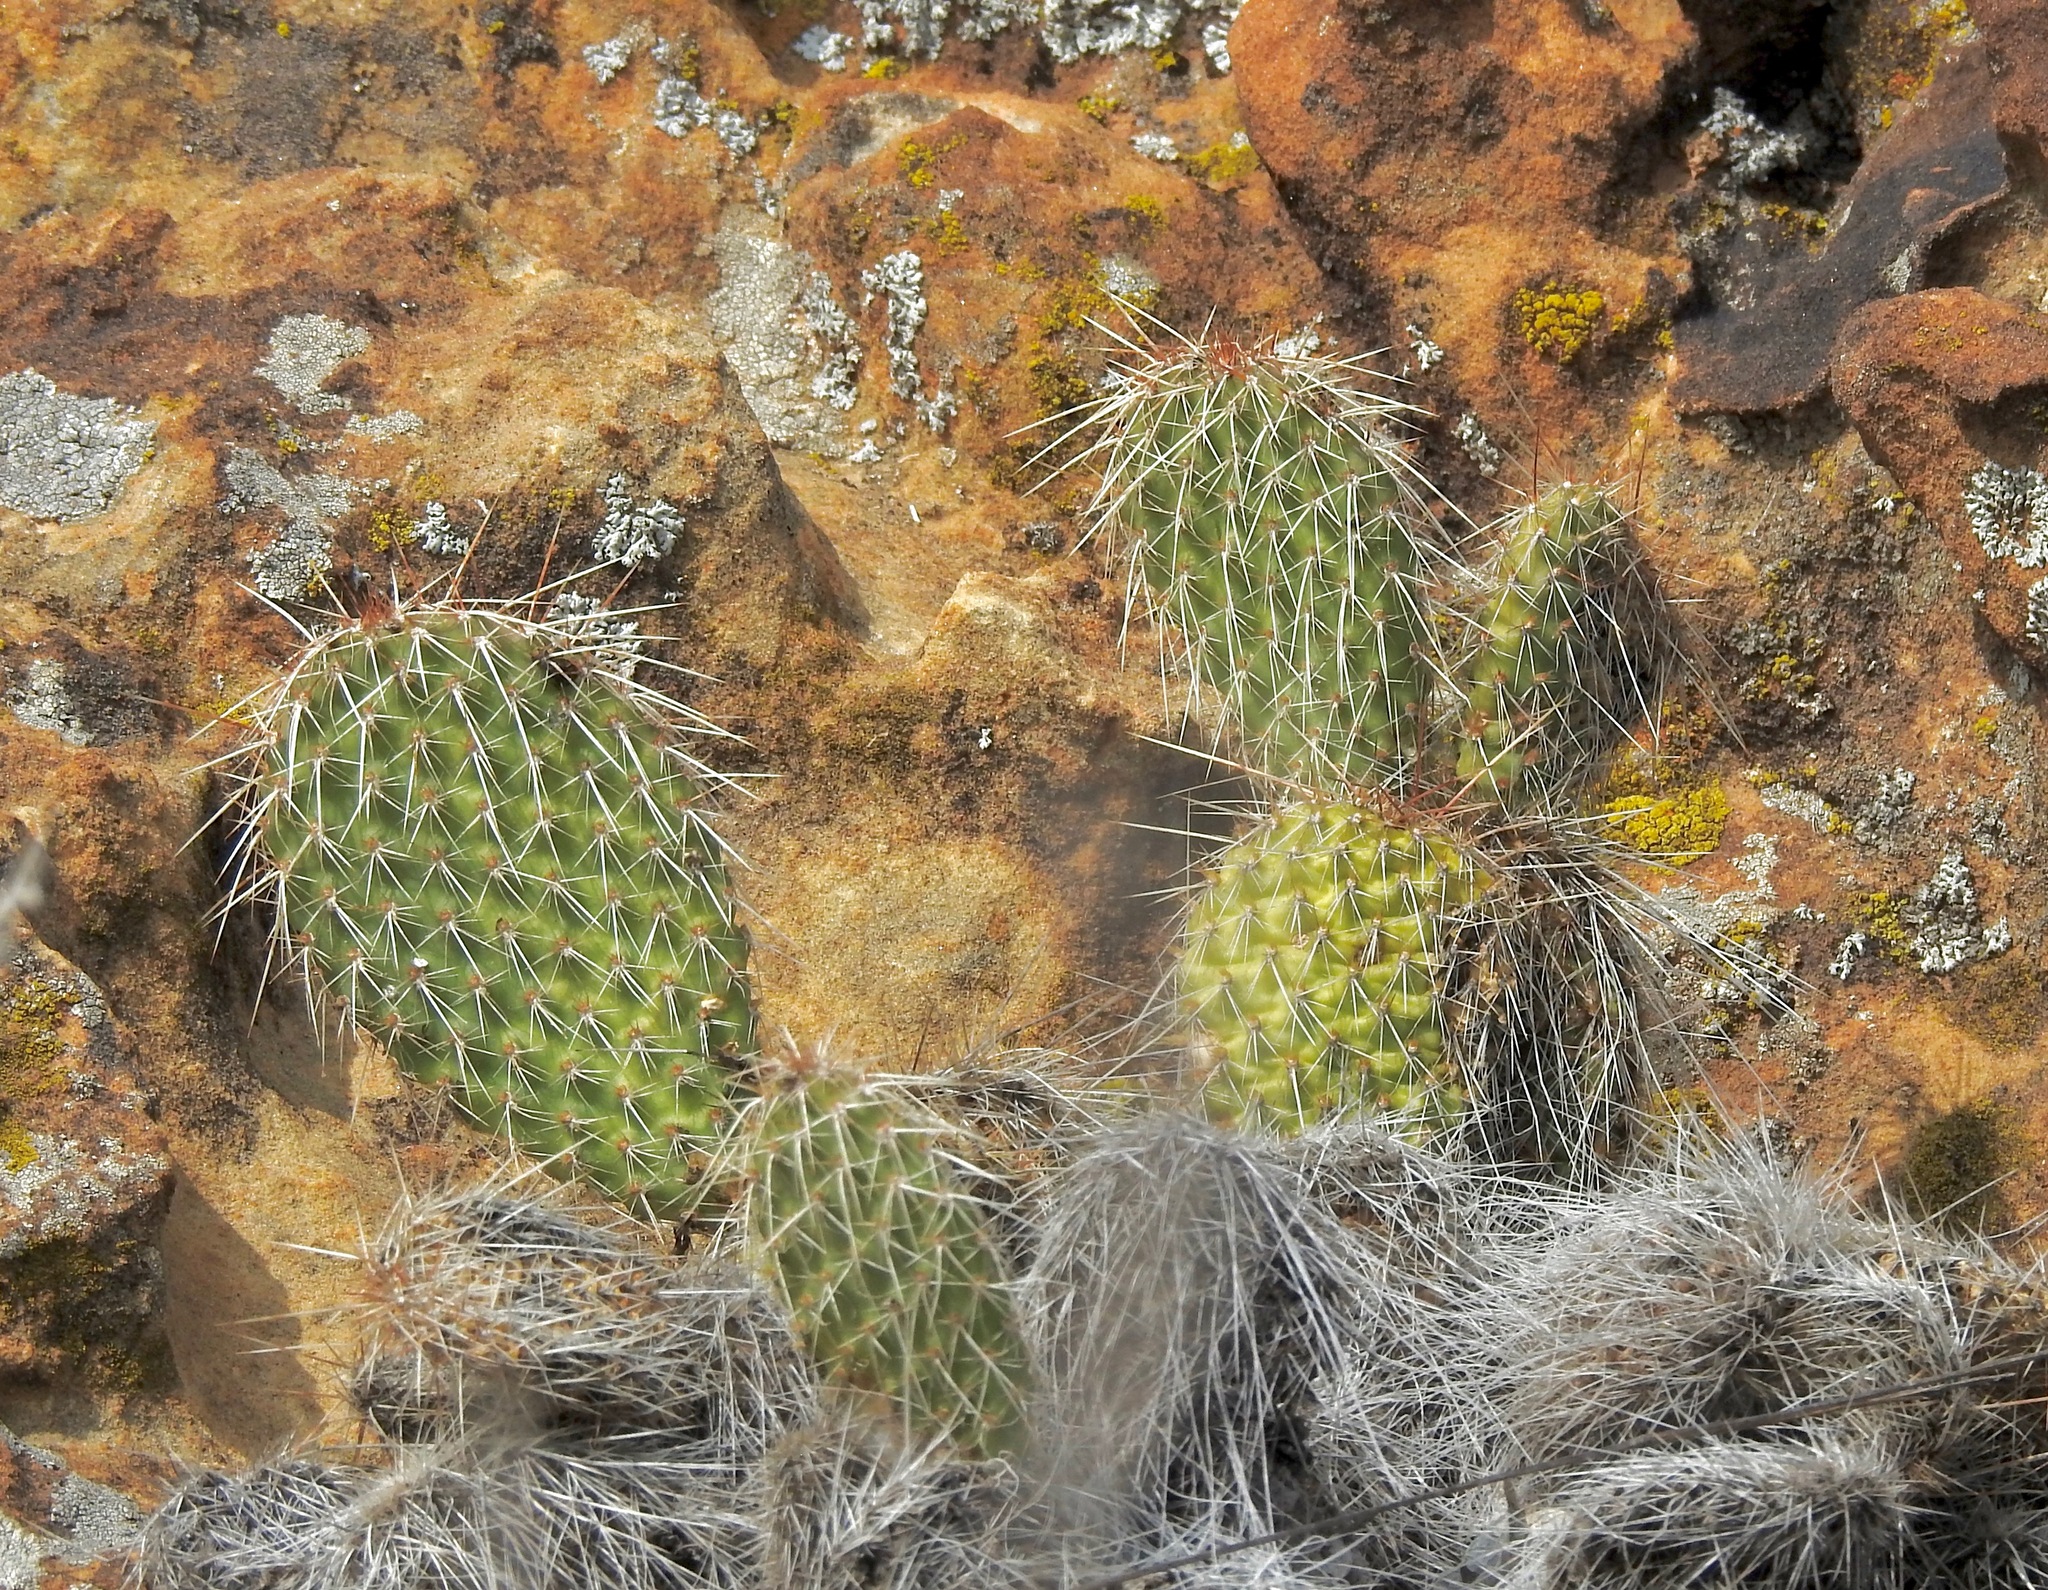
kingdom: Plantae
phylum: Tracheophyta
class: Magnoliopsida
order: Caryophyllales
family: Cactaceae
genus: Opuntia
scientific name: Opuntia polyacantha
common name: Plains prickly-pear
